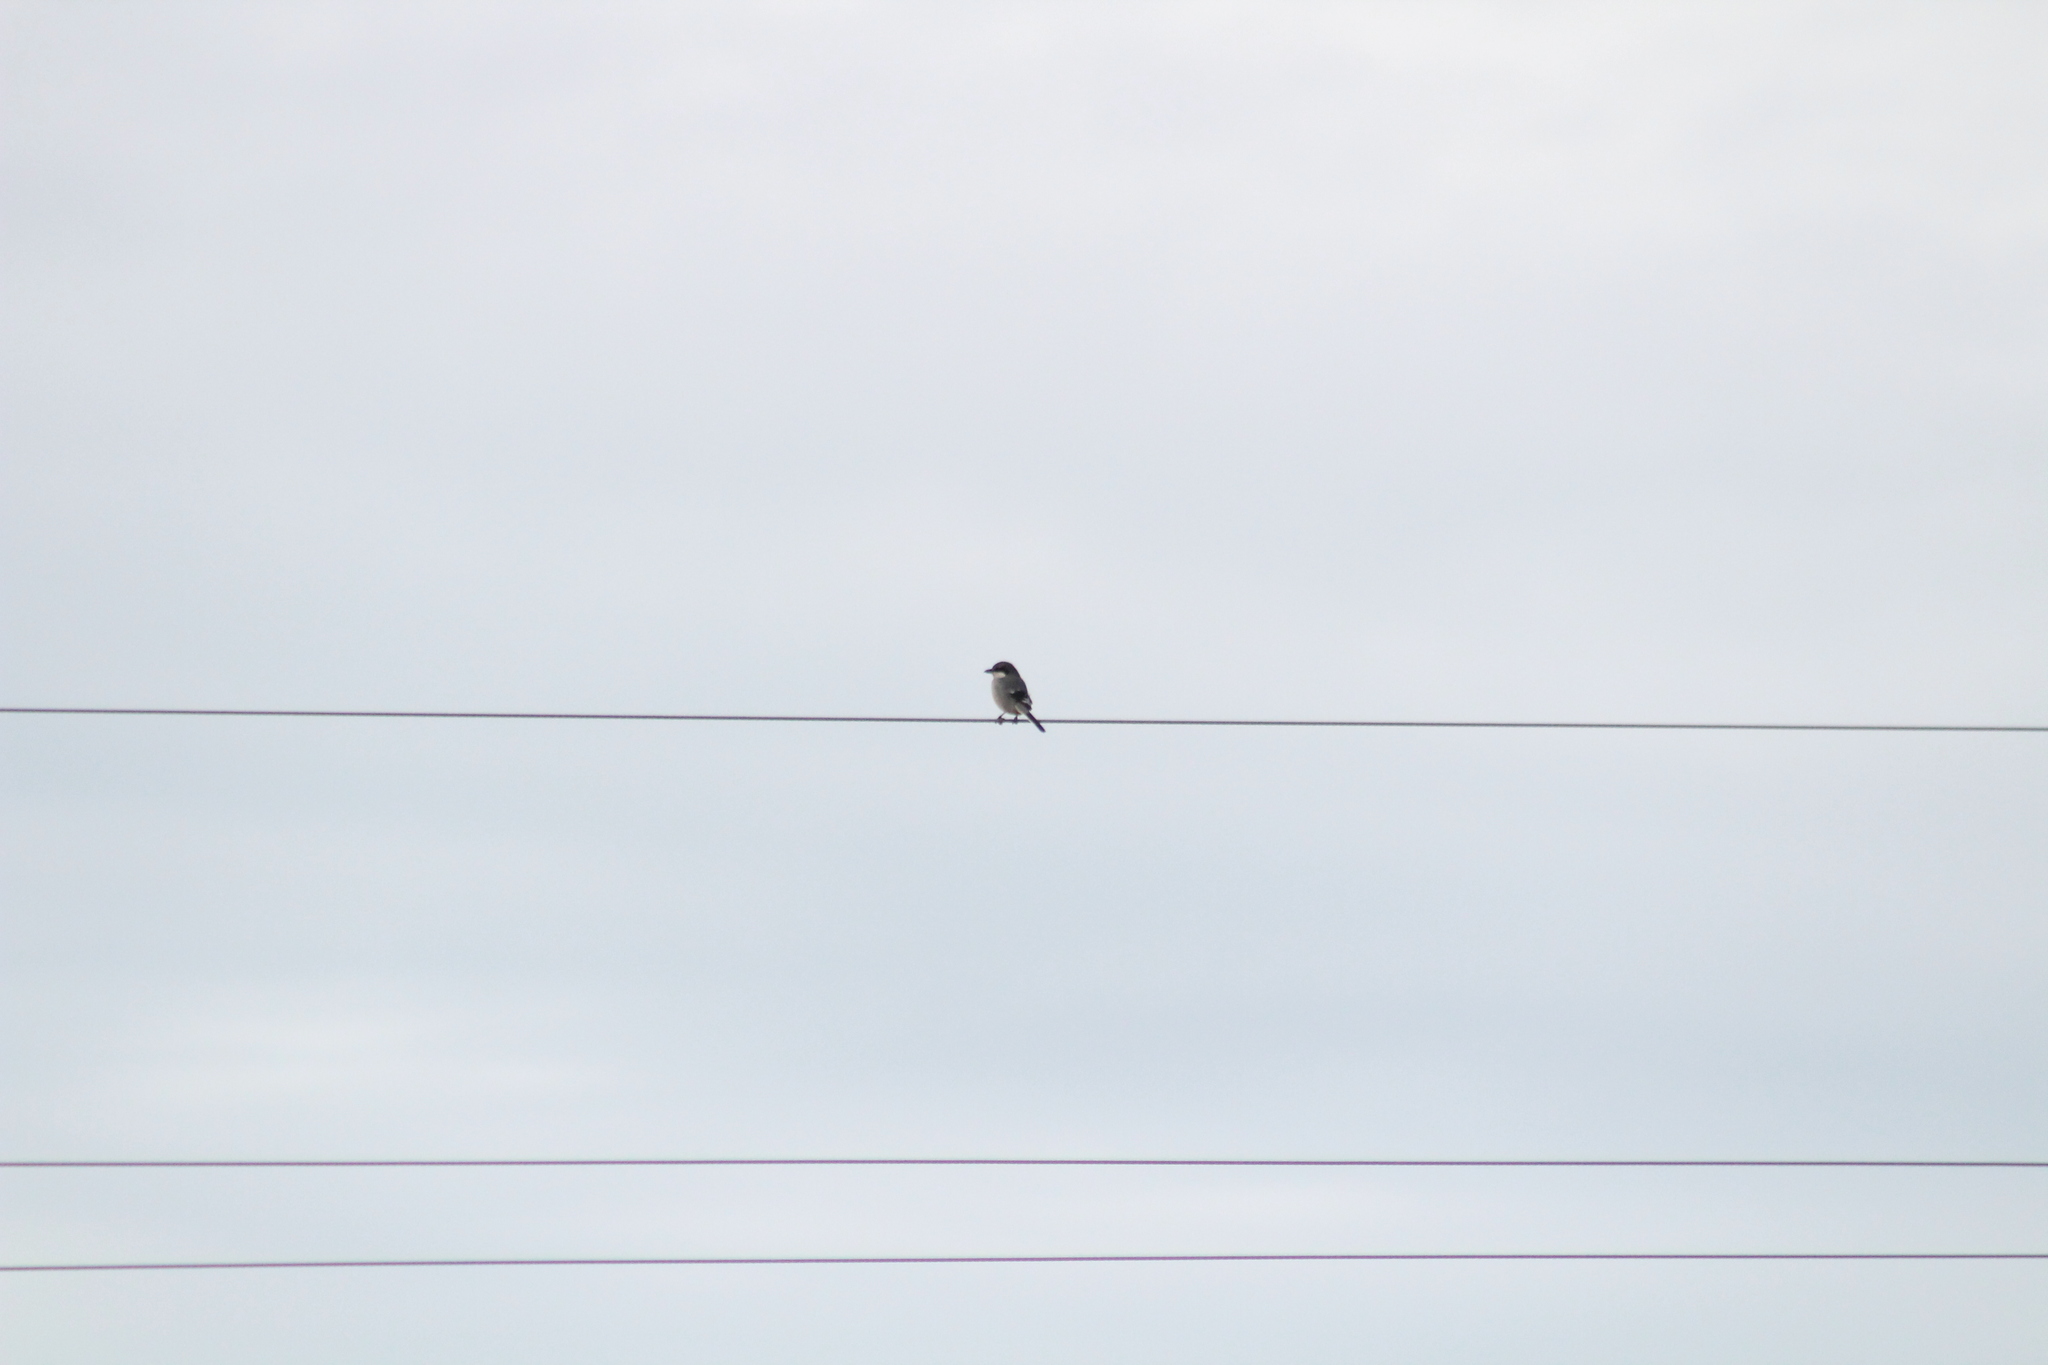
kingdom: Animalia
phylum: Chordata
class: Aves
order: Passeriformes
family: Laniidae
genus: Lanius
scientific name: Lanius meridionalis
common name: Iberian grey shrike
